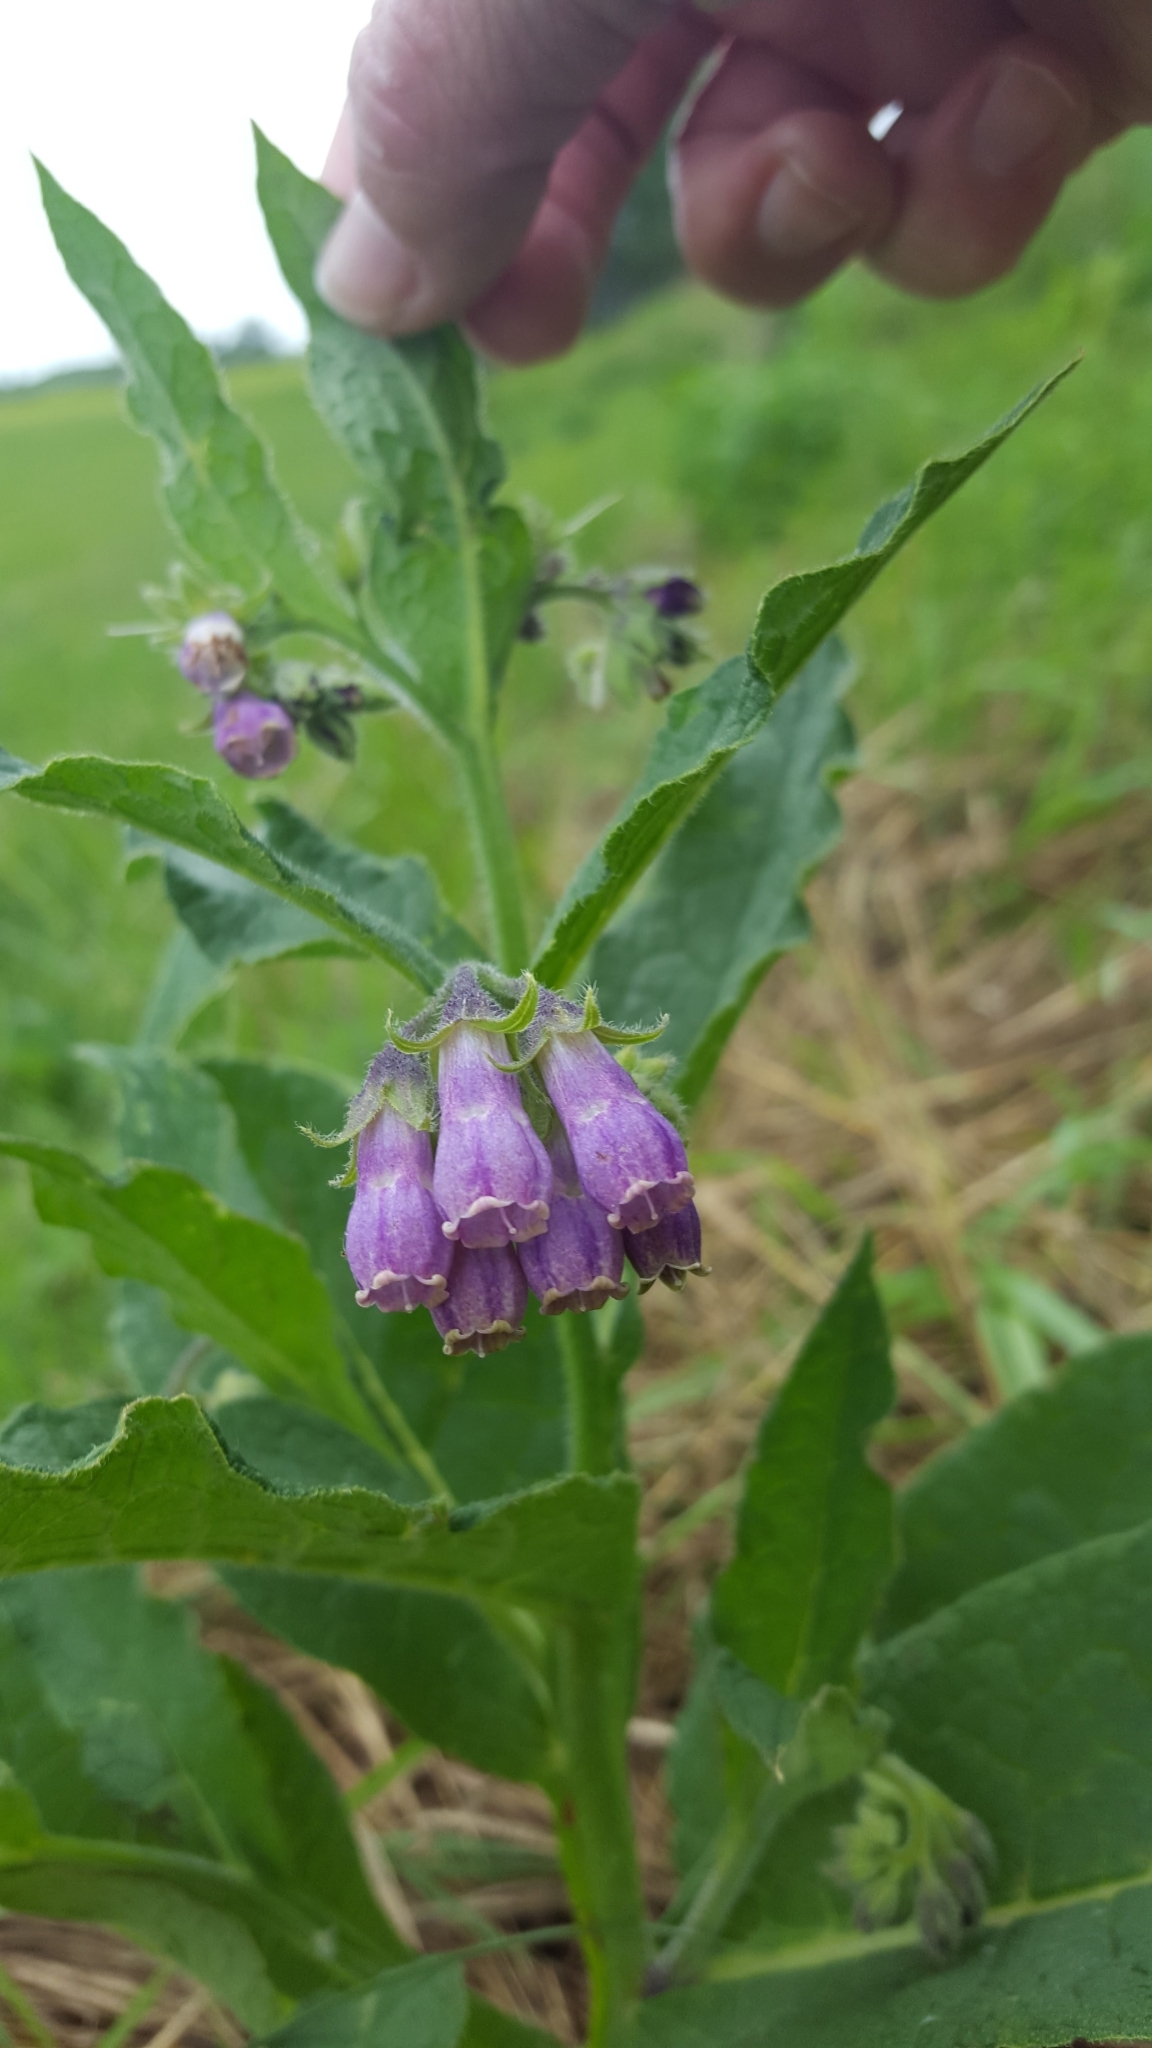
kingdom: Plantae
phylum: Tracheophyta
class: Magnoliopsida
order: Boraginales
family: Boraginaceae
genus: Symphytum
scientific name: Symphytum officinale
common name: Common comfrey
